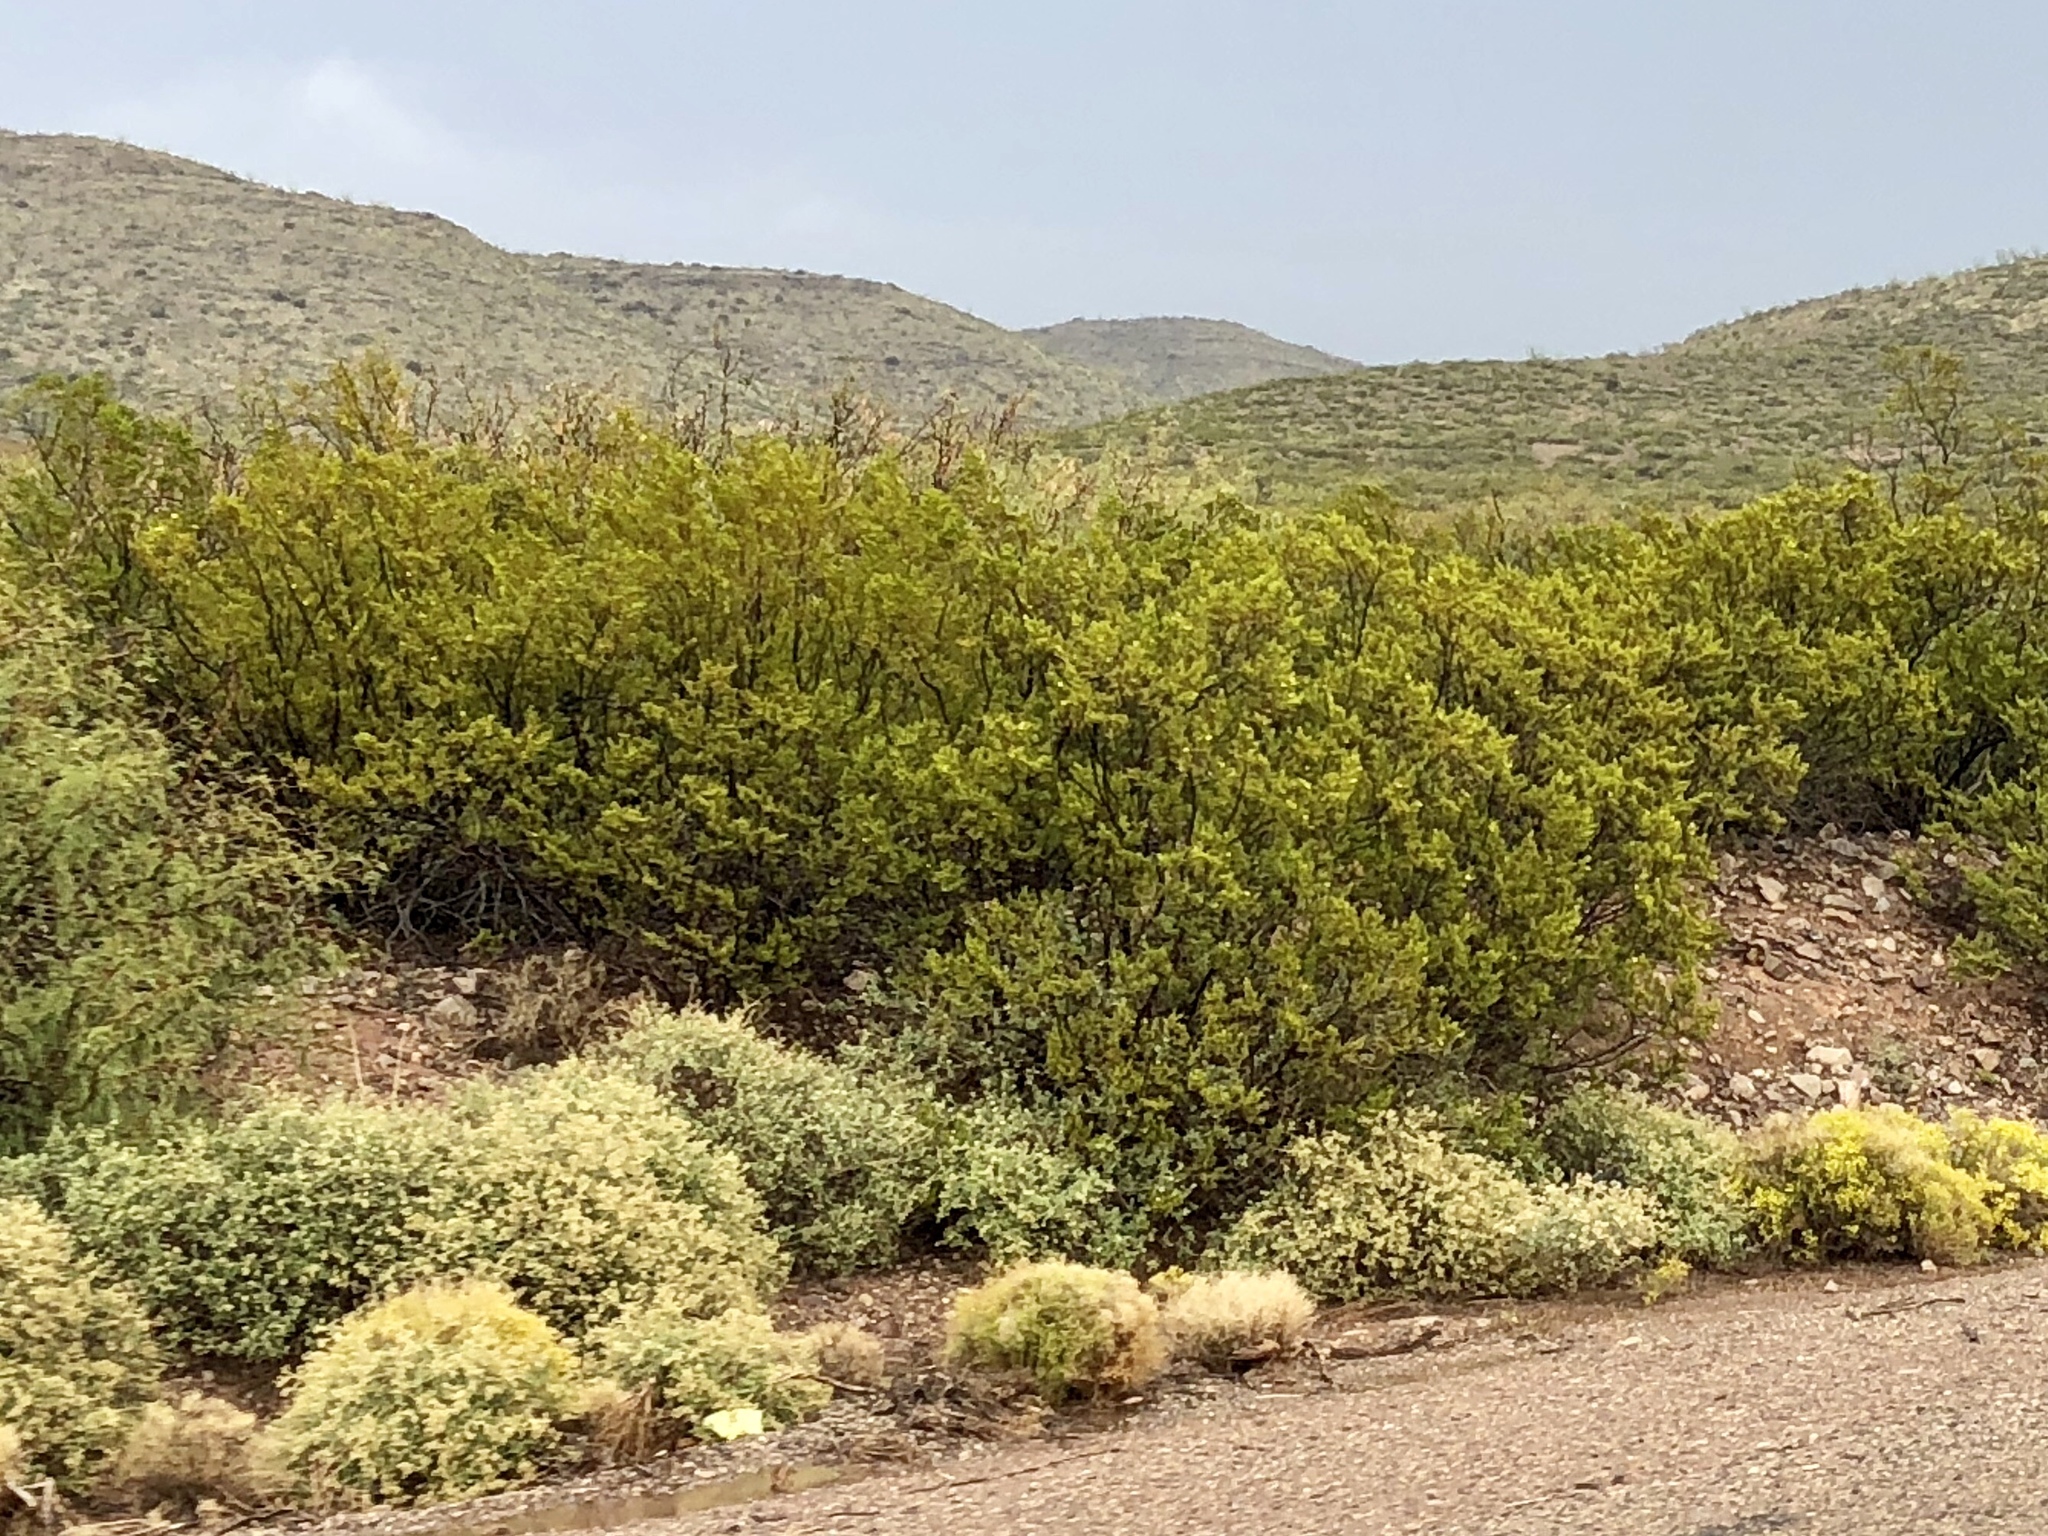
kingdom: Plantae
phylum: Tracheophyta
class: Magnoliopsida
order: Zygophyllales
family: Zygophyllaceae
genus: Larrea
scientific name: Larrea tridentata
